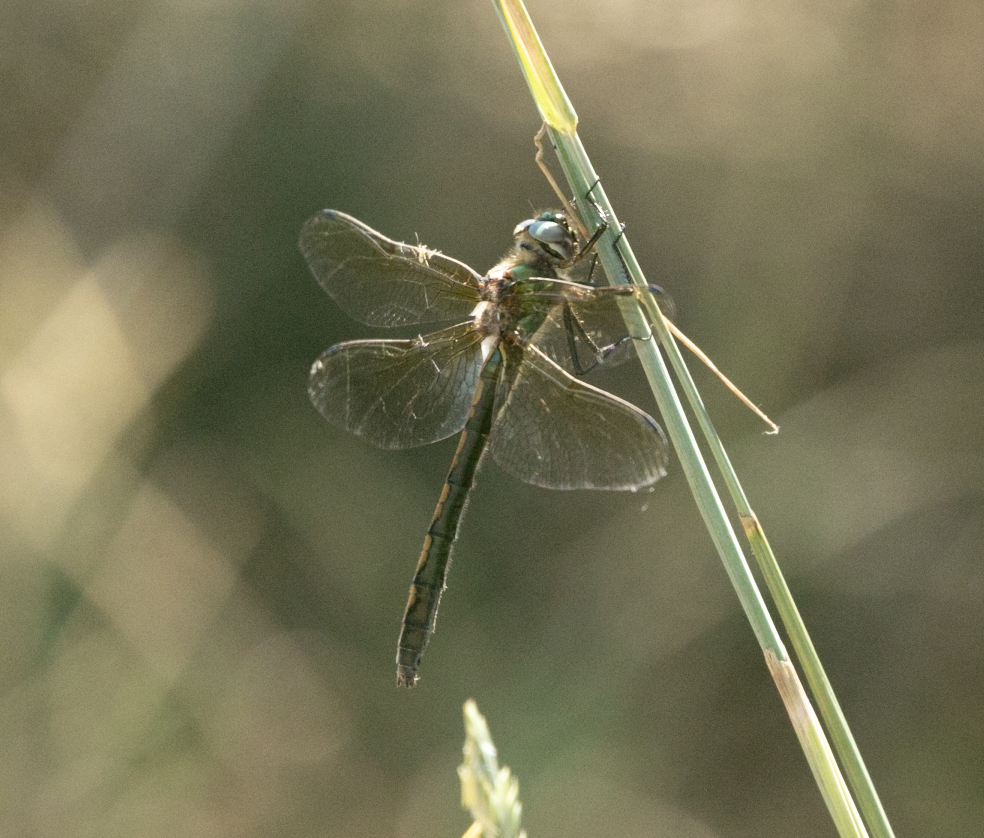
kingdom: Animalia
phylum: Arthropoda
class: Insecta
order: Odonata
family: Corduliidae
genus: Oxygastra
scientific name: Oxygastra curtisii
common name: Orange-spotted emerald
